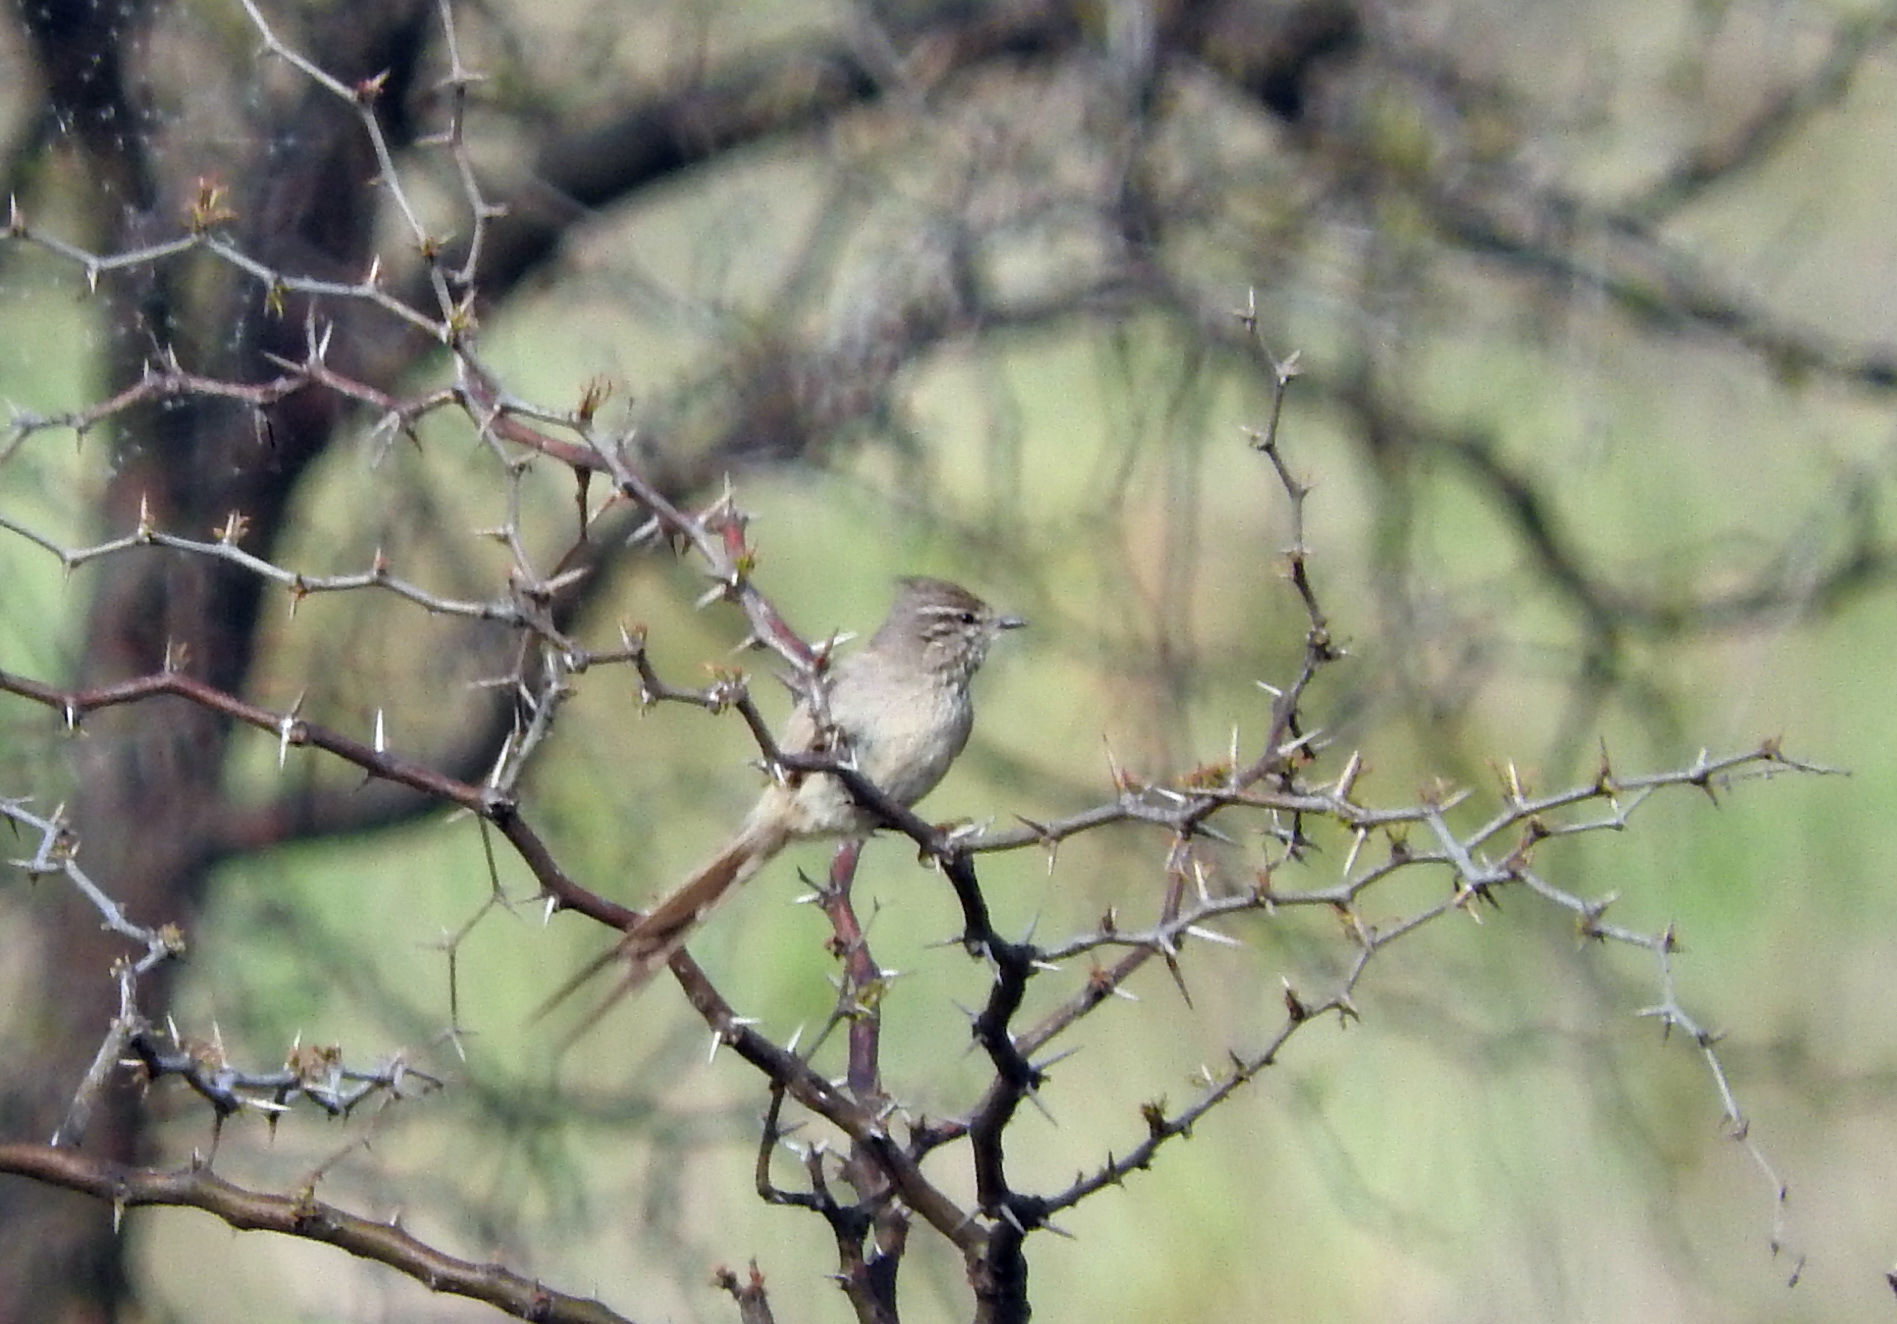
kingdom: Animalia
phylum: Chordata
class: Aves
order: Passeriformes
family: Furnariidae
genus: Leptasthenura
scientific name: Leptasthenura platensis
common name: Tufted tit-spinetail
